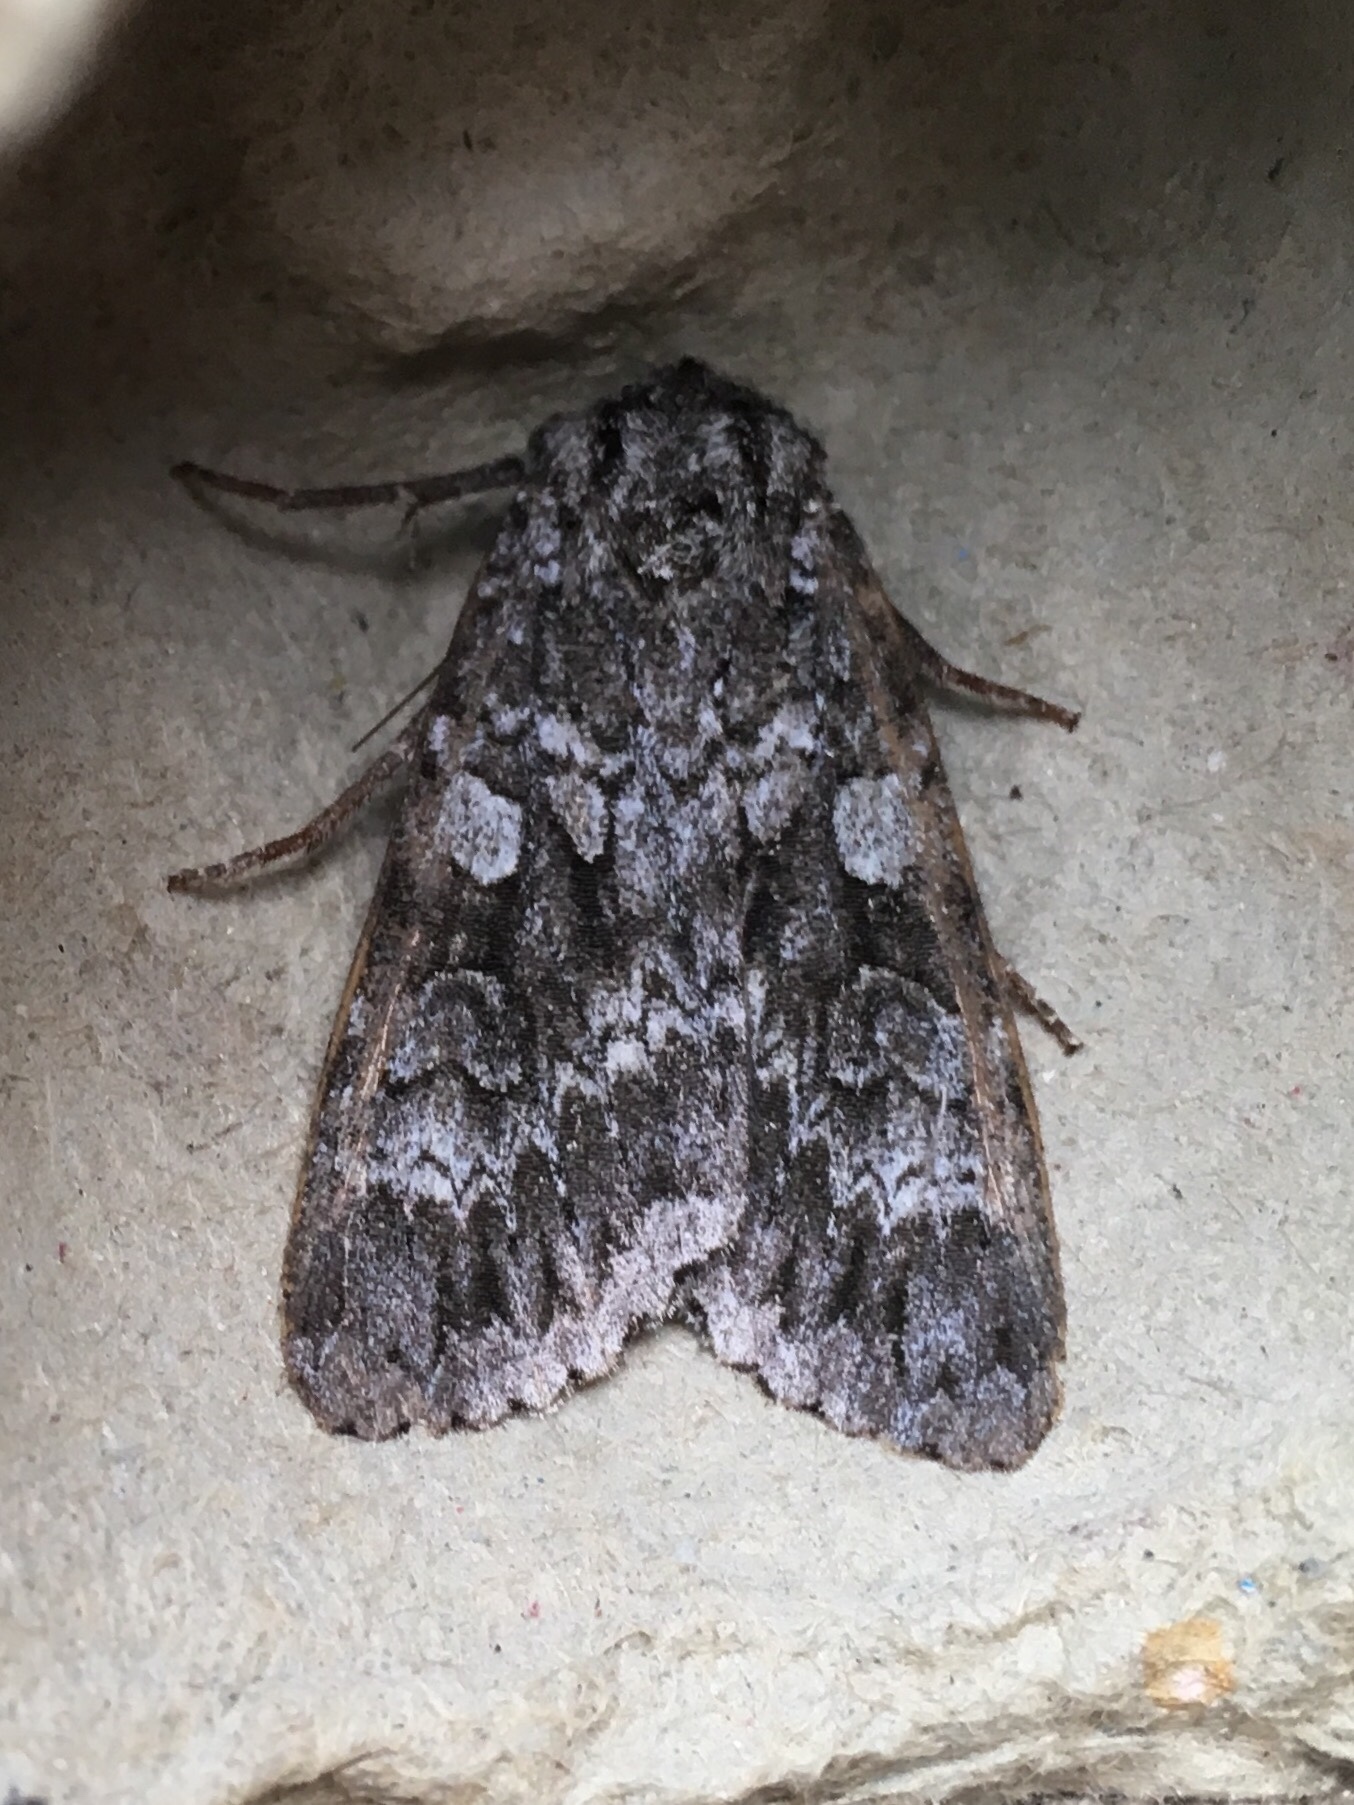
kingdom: Animalia
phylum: Arthropoda
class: Insecta
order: Lepidoptera
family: Noctuidae
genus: Eurois
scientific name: Eurois occulta
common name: Great brocade
